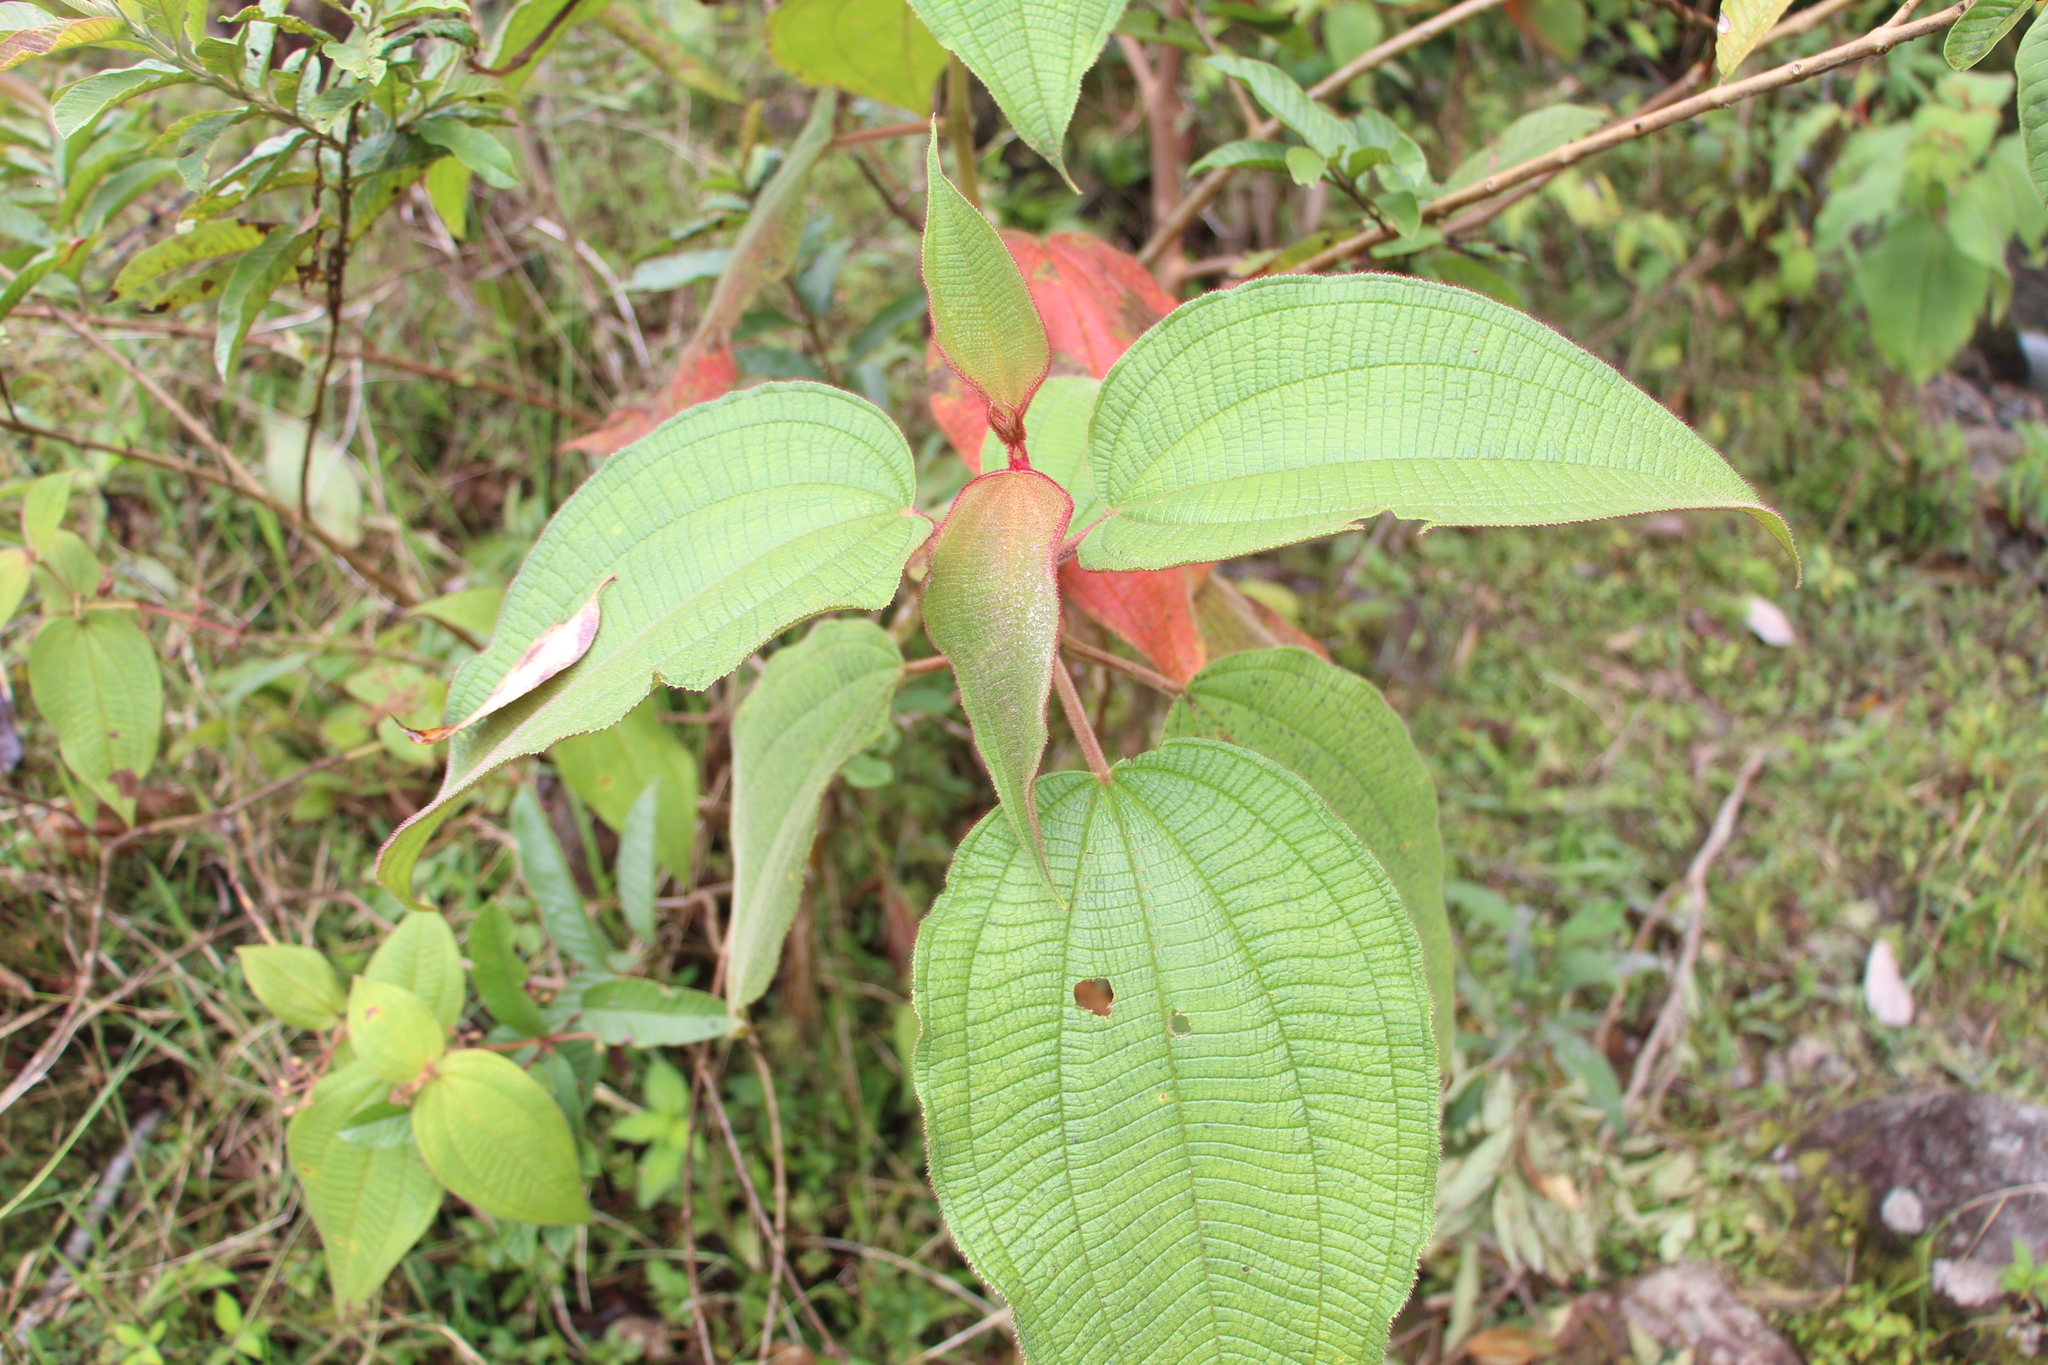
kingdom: Plantae
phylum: Tracheophyta
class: Magnoliopsida
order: Myrtales
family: Melastomataceae
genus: Miconia
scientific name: Miconia aeruginosa
